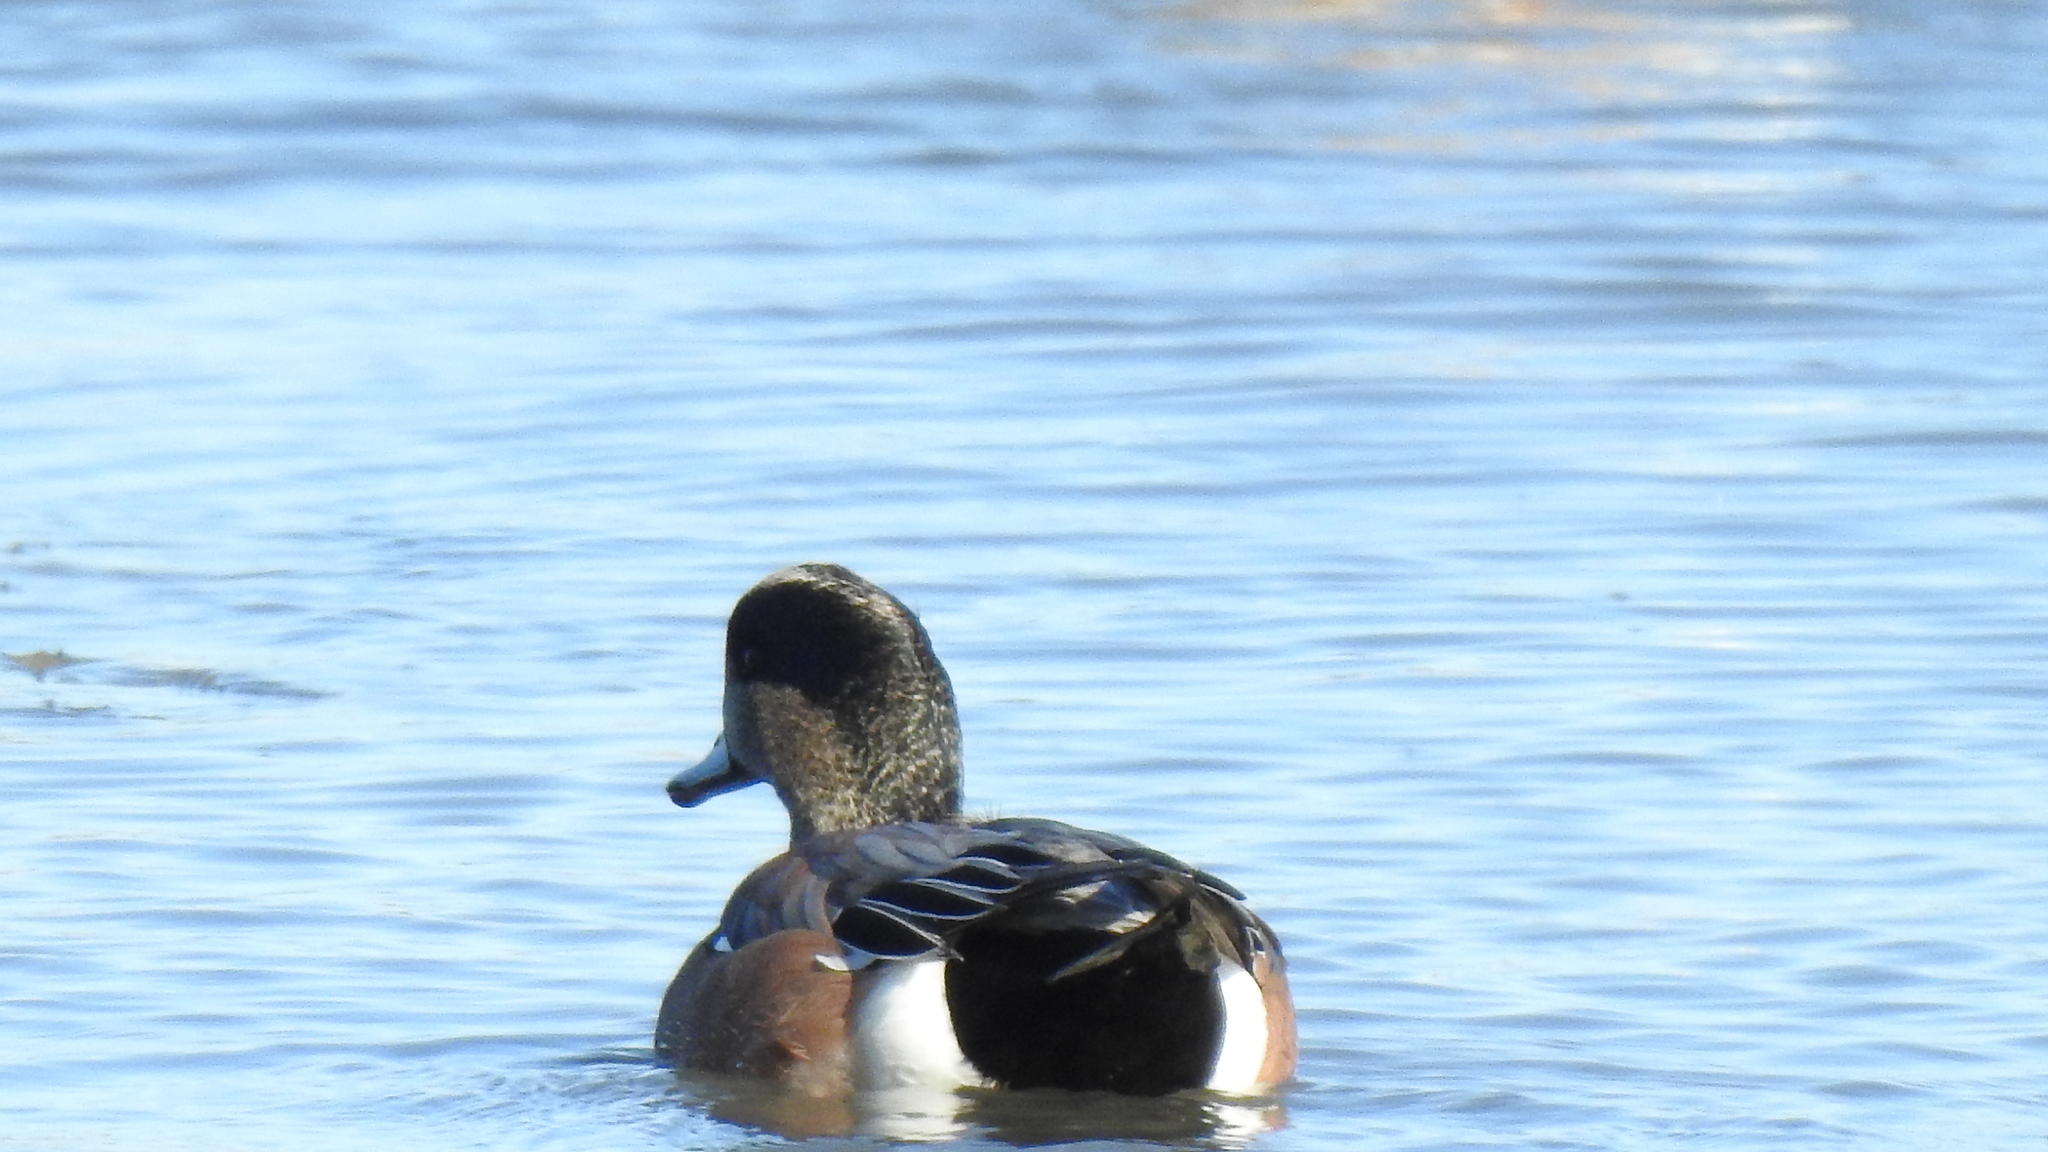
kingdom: Animalia
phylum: Chordata
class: Aves
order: Anseriformes
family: Anatidae
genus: Mareca
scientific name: Mareca americana
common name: American wigeon
